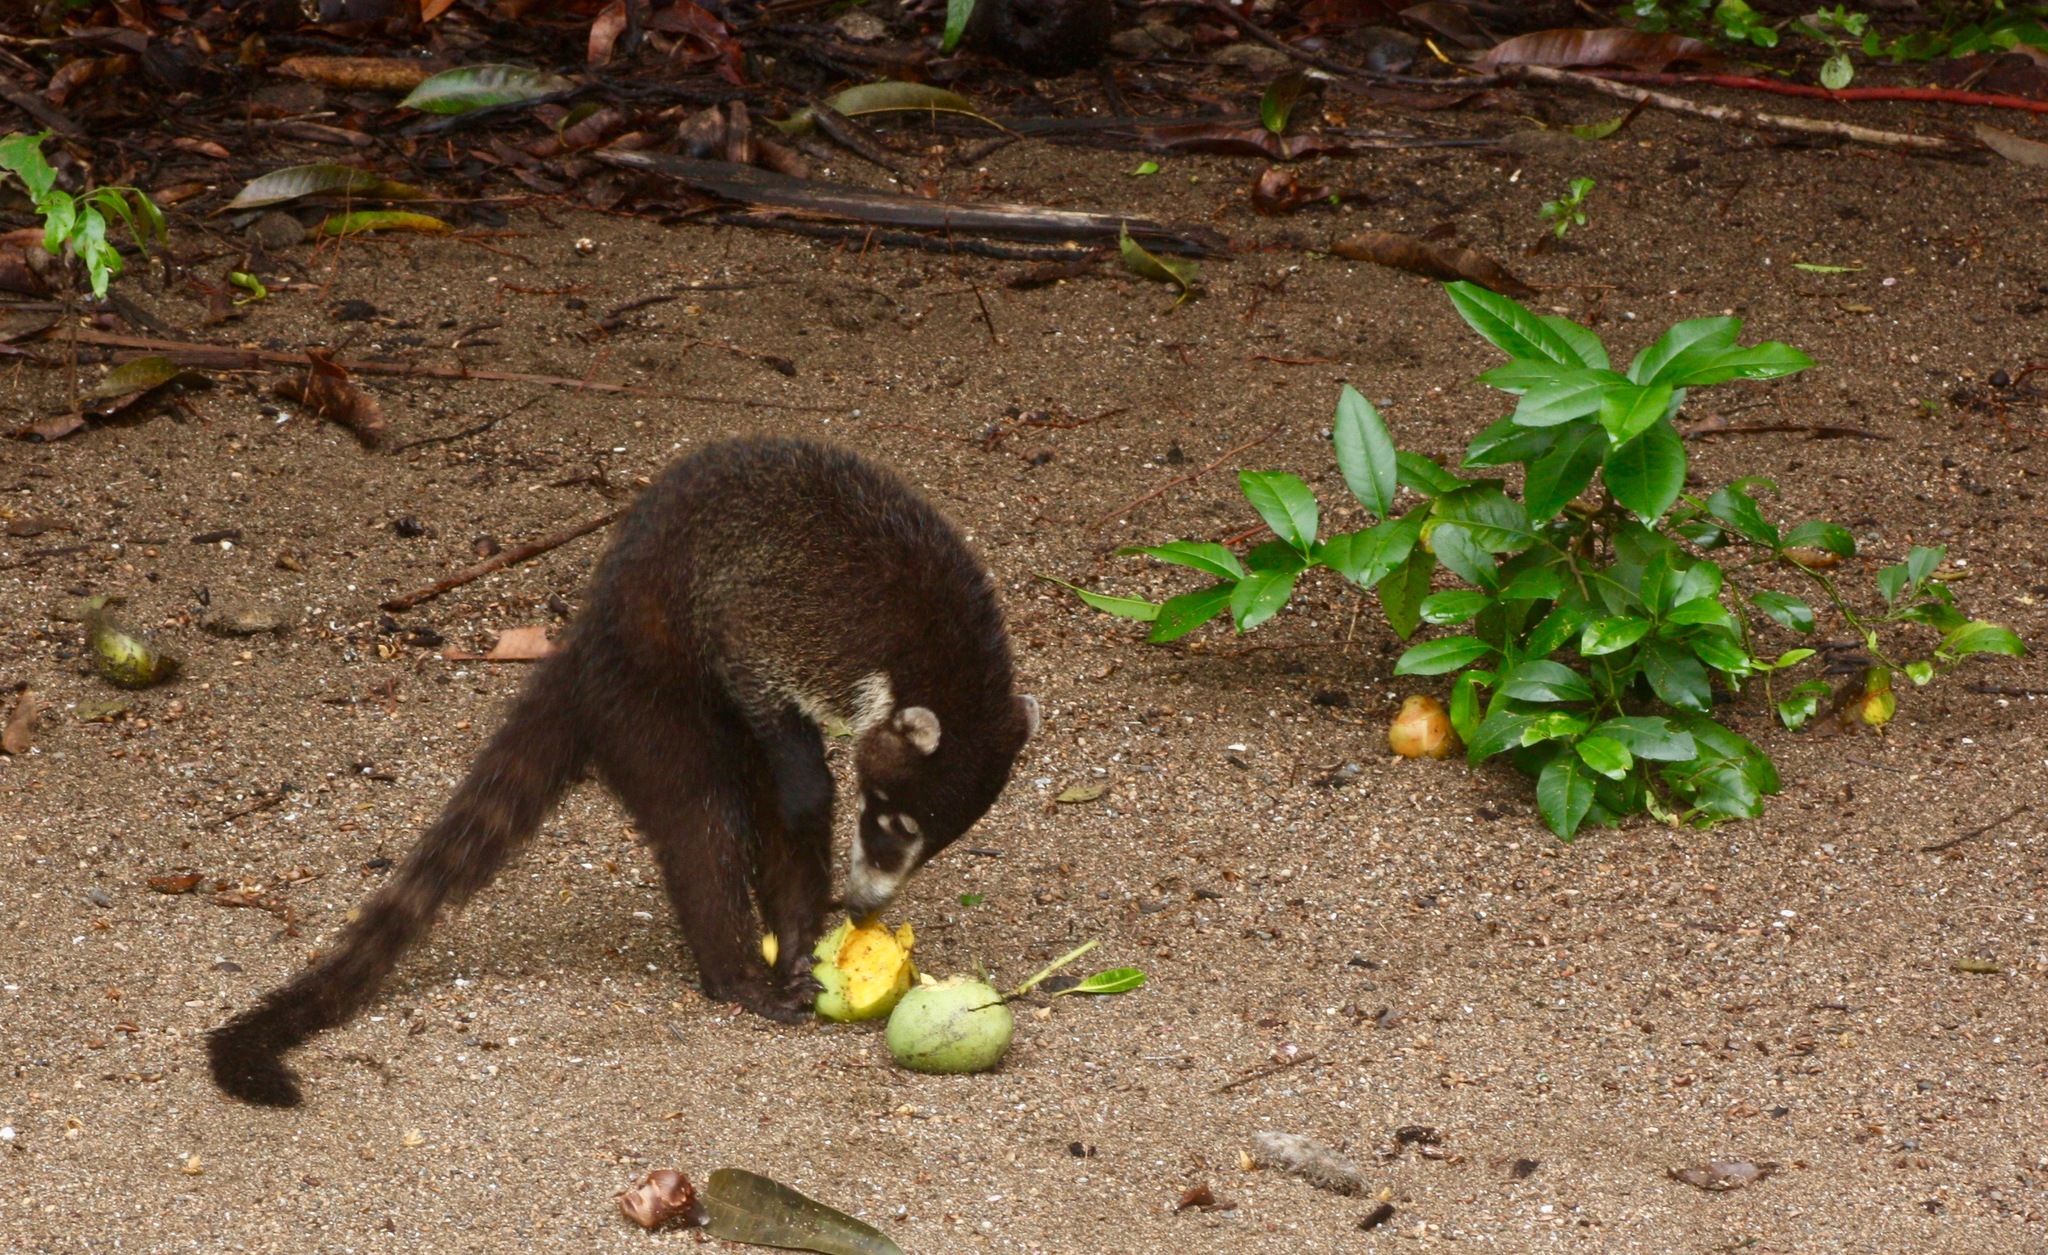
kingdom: Animalia
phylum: Chordata
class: Mammalia
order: Carnivora
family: Procyonidae
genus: Nasua
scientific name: Nasua narica
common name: White-nosed coati
